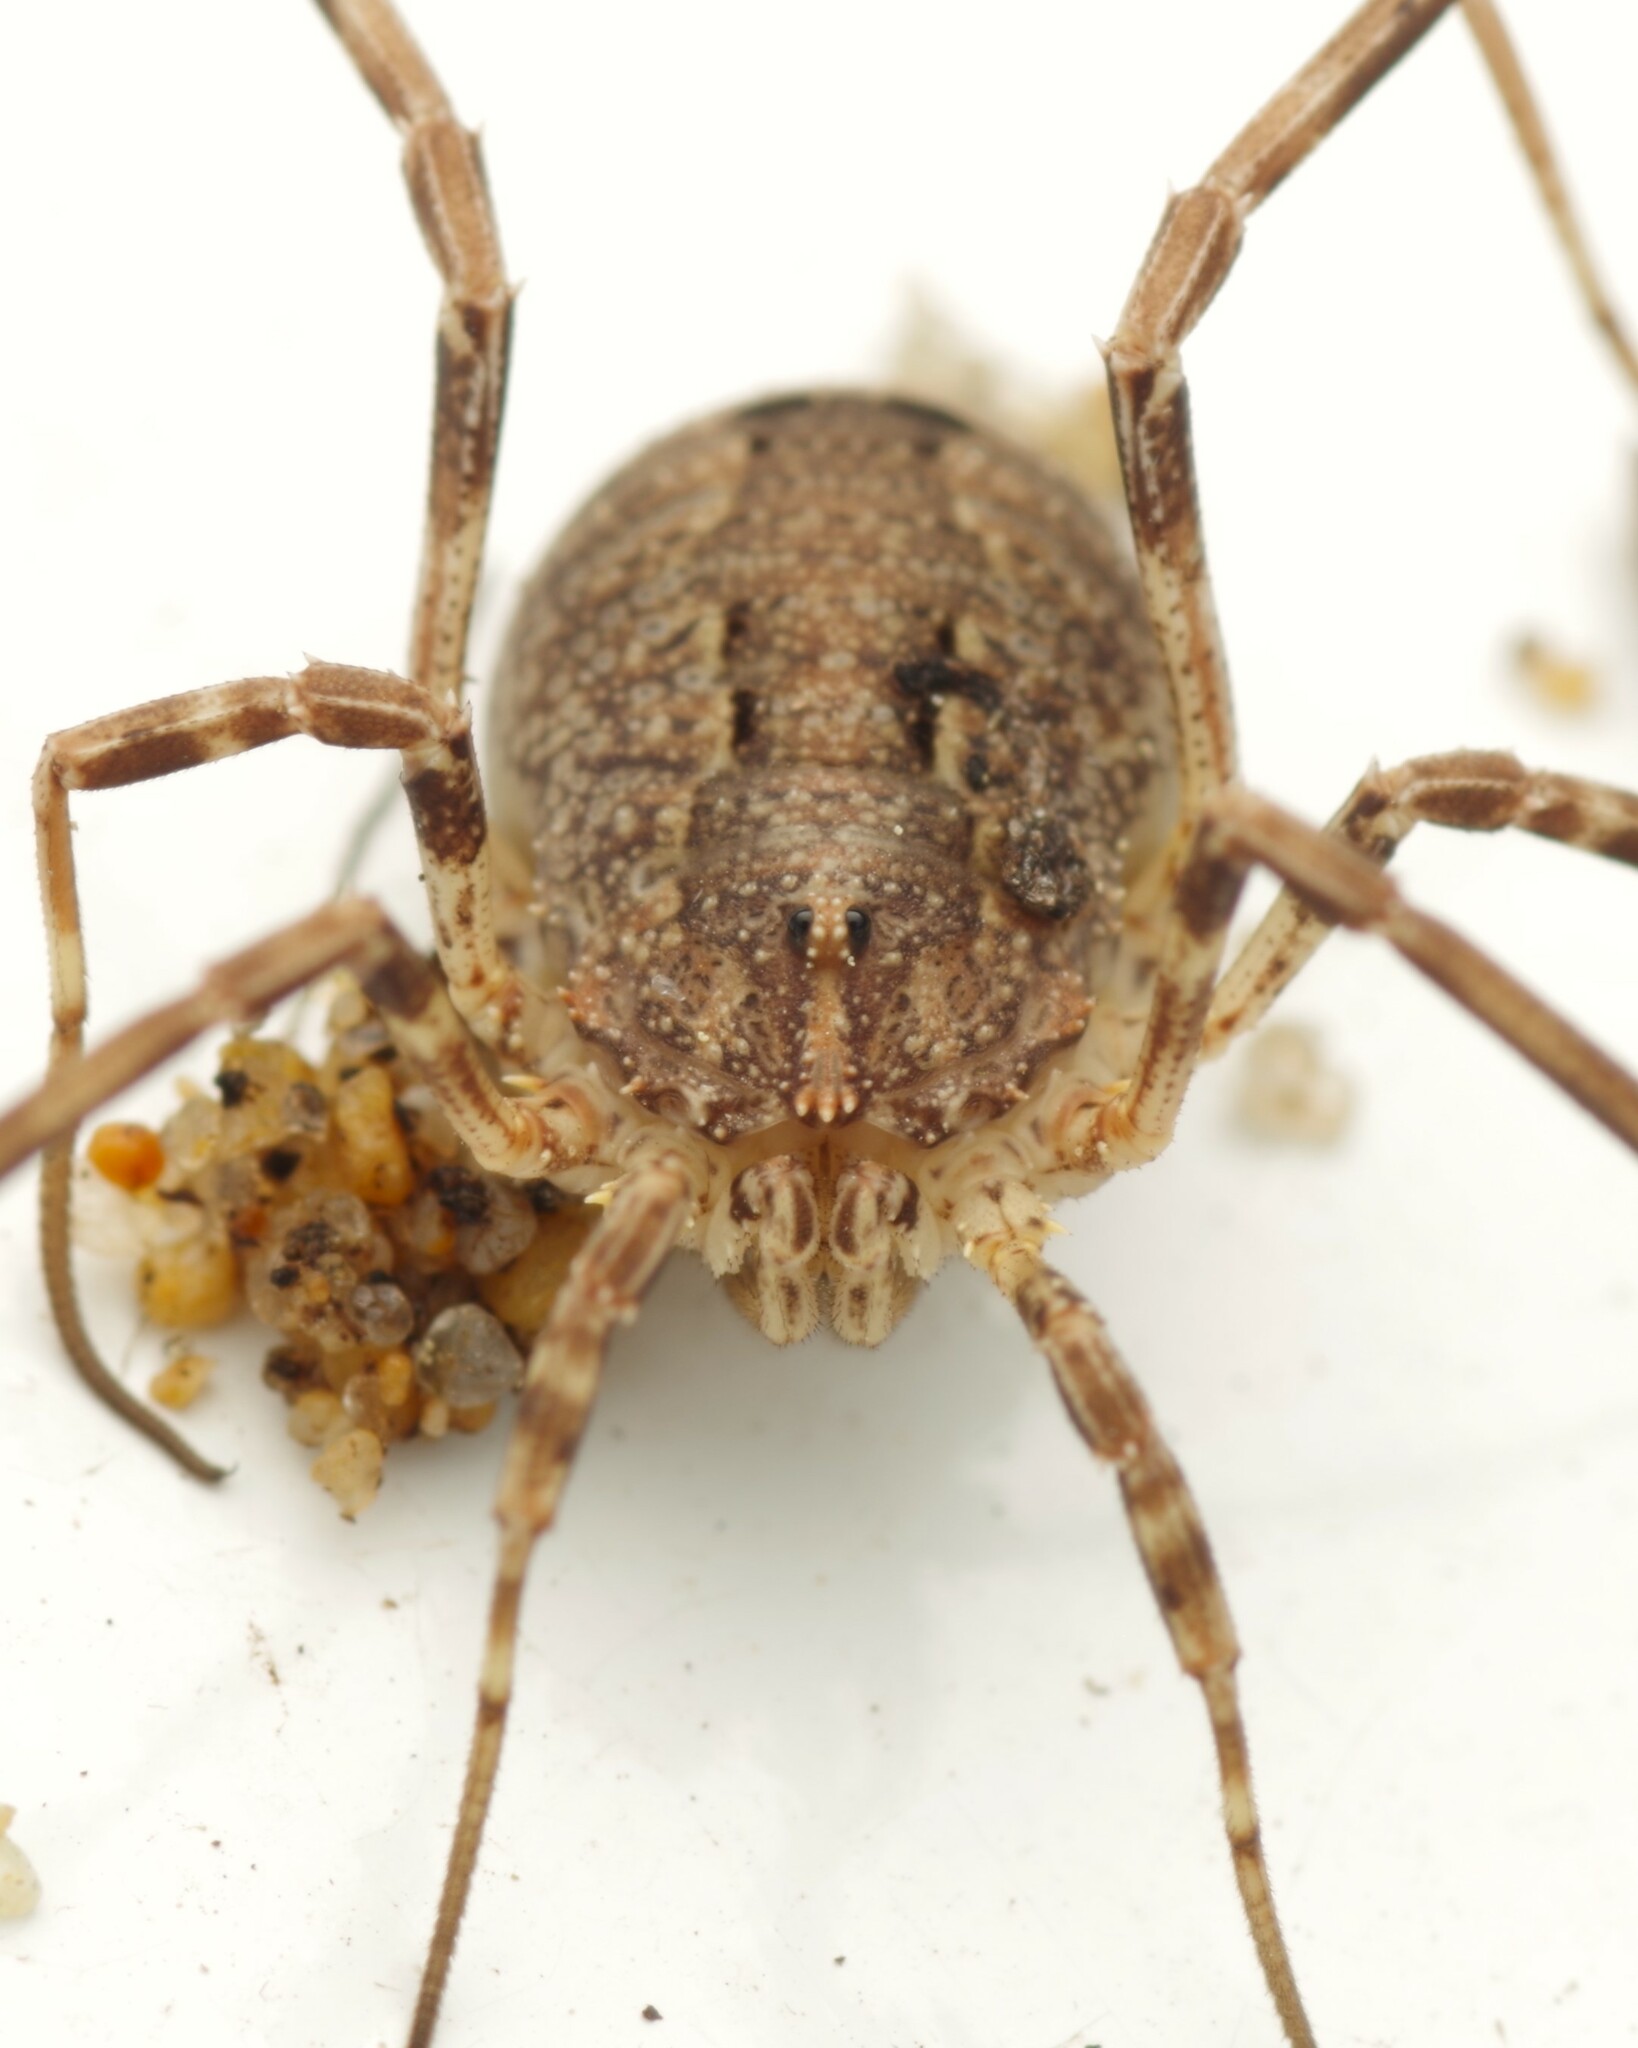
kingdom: Animalia
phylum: Arthropoda
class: Arachnida
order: Opiliones
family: Phalangiidae
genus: Odiellus
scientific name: Odiellus spinosus
